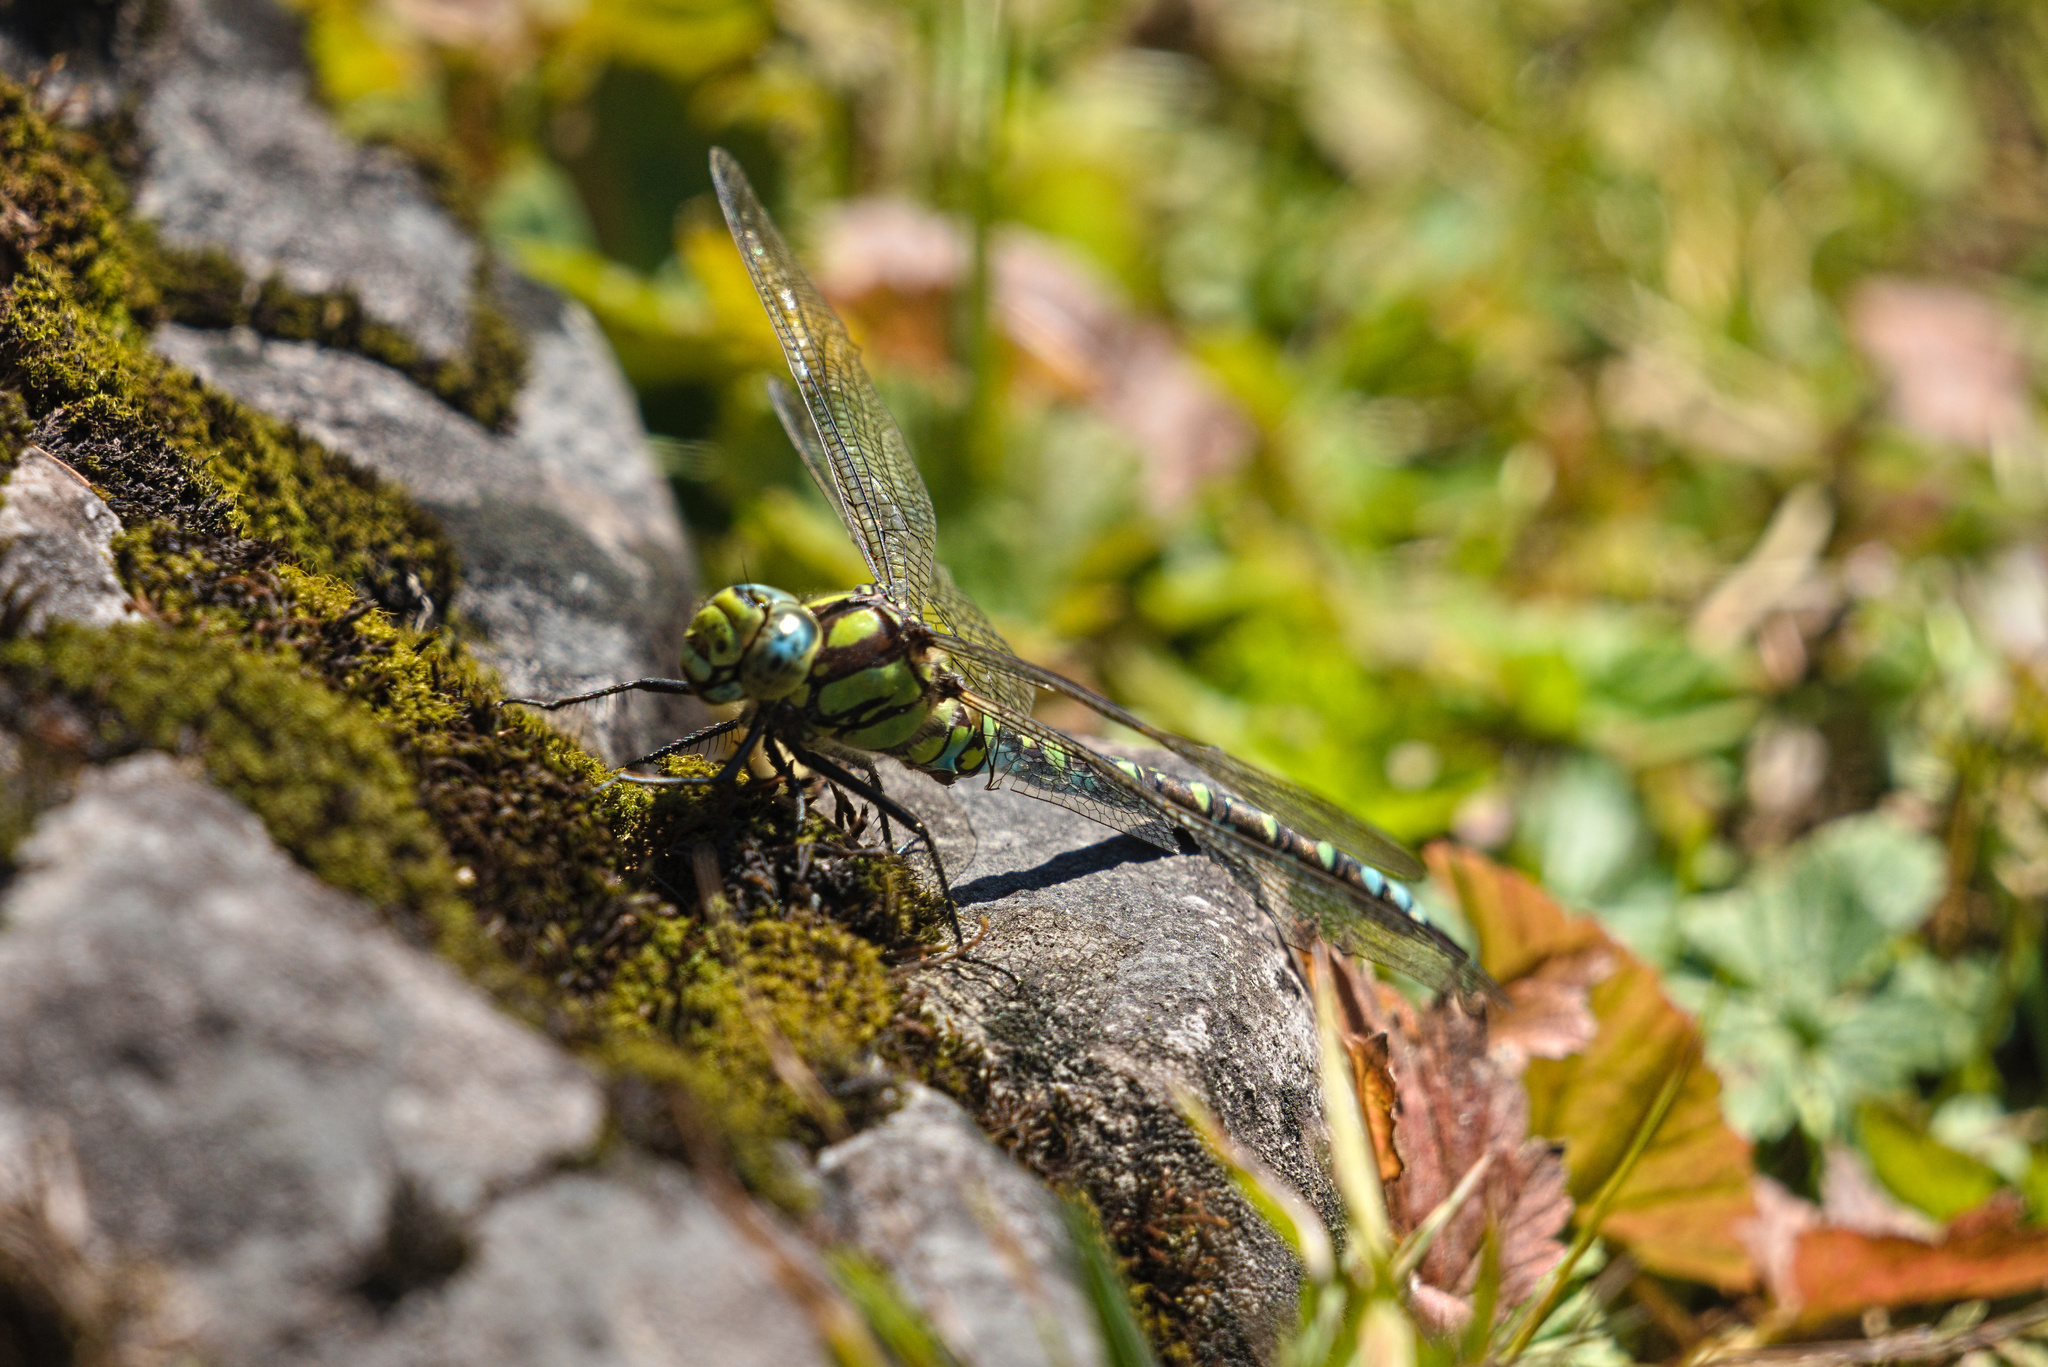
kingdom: Animalia
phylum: Arthropoda
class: Insecta
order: Odonata
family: Aeshnidae
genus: Aeshna
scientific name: Aeshna cyanea
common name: Southern hawker
